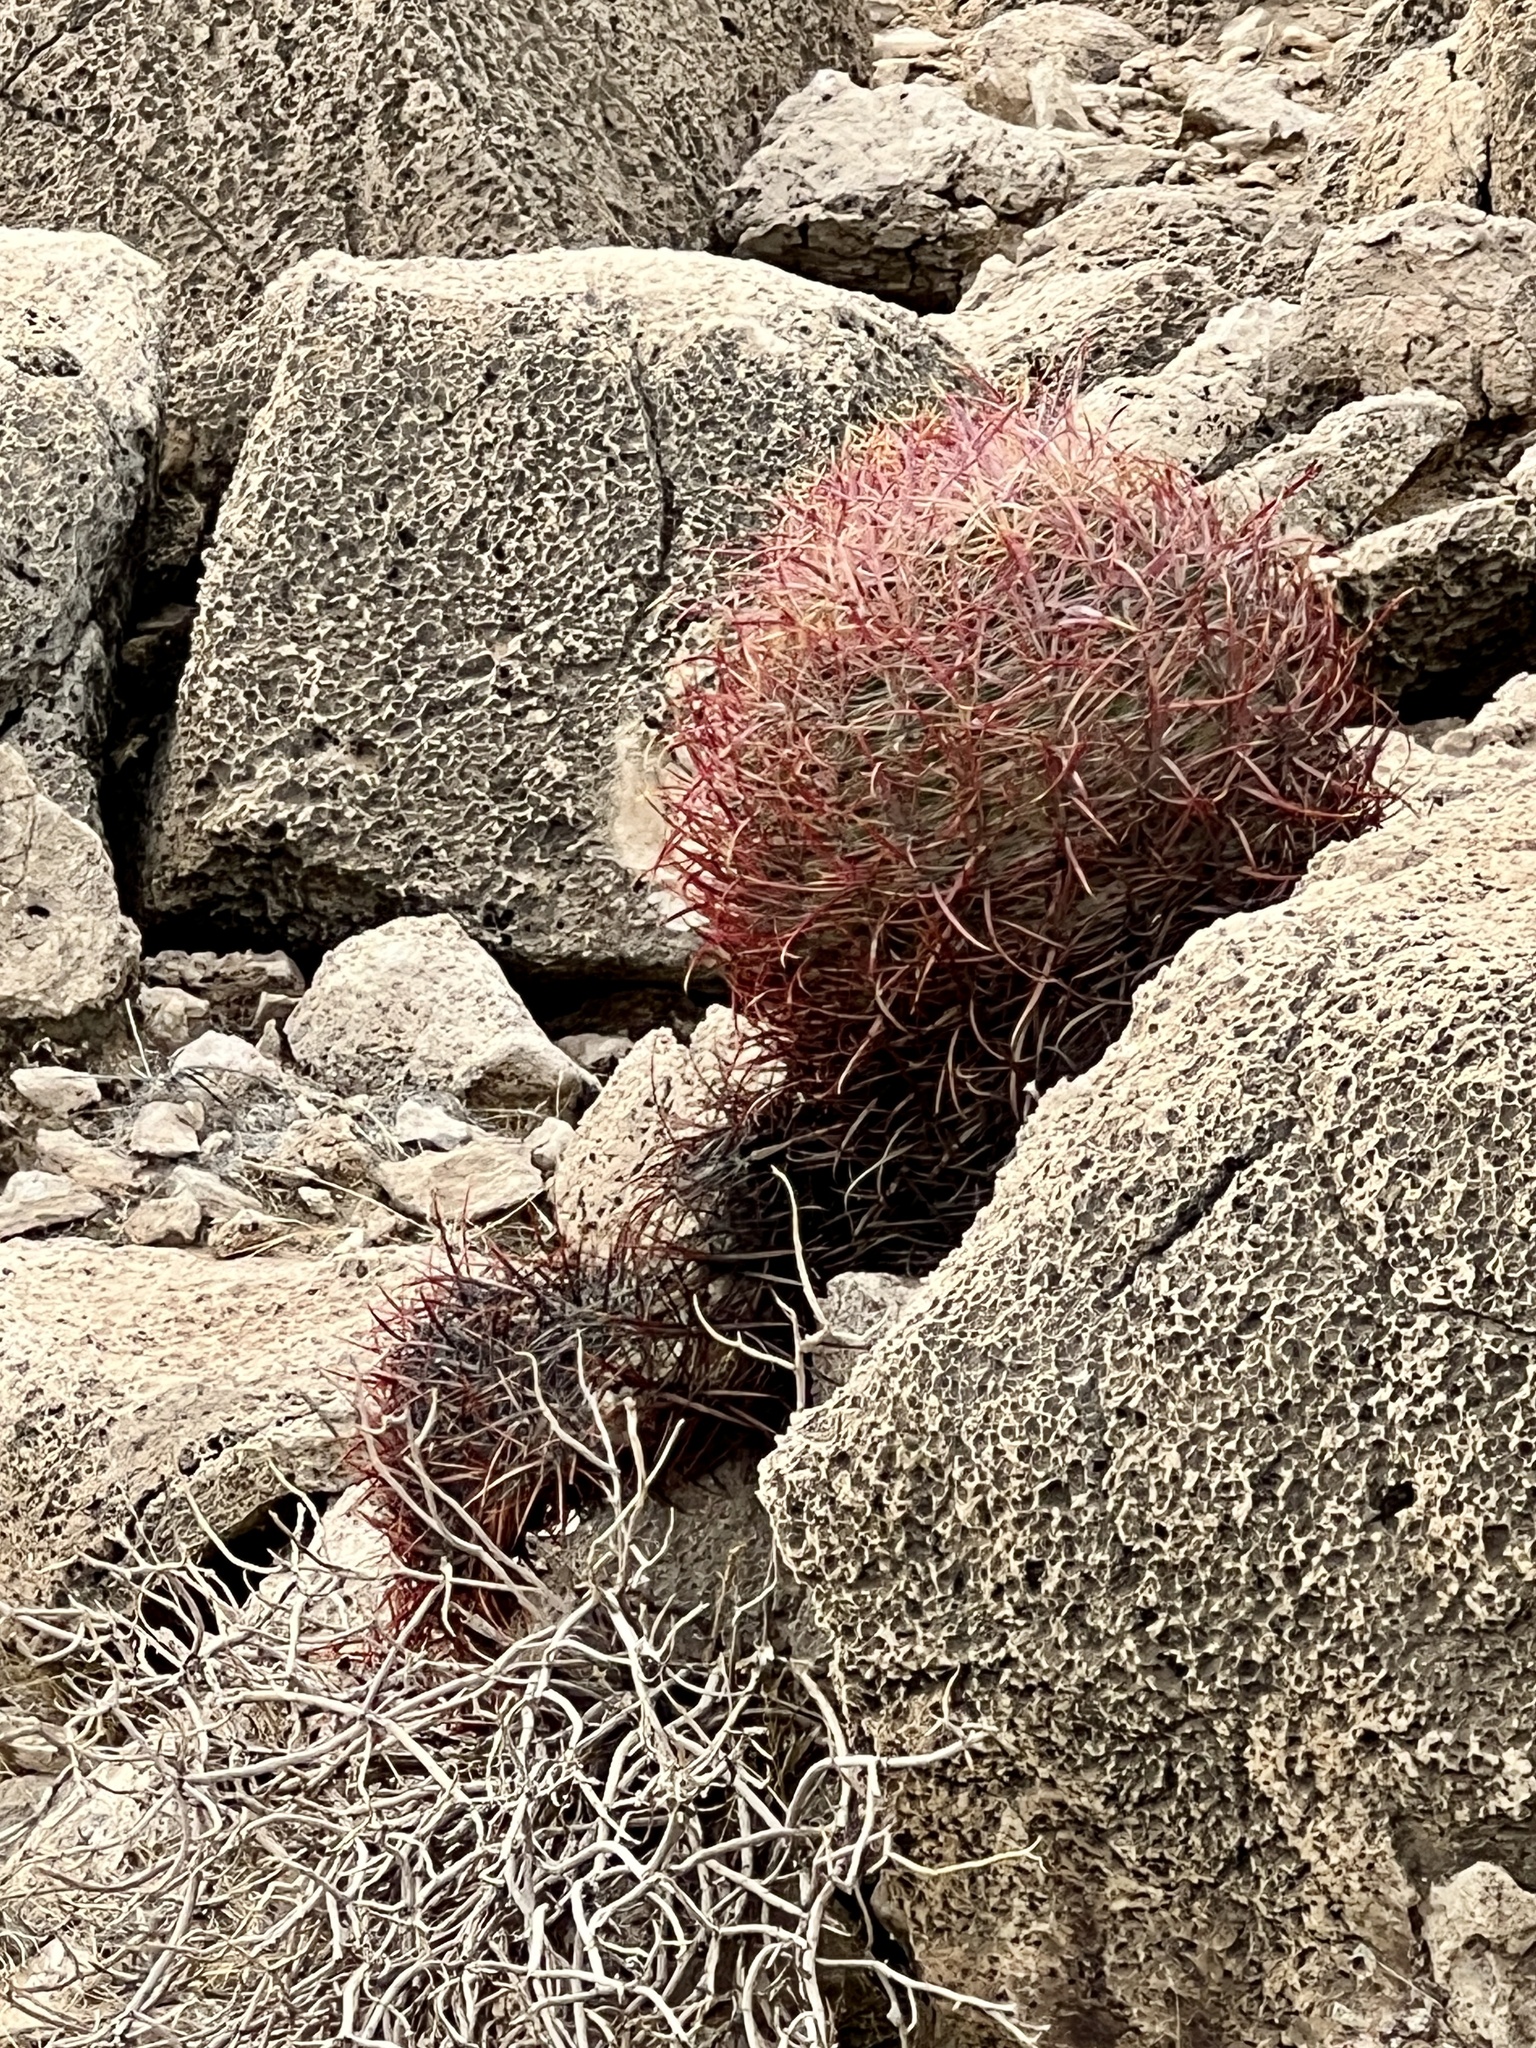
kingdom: Plantae
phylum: Tracheophyta
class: Magnoliopsida
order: Caryophyllales
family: Cactaceae
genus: Ferocactus
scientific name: Ferocactus cylindraceus
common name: California barrel cactus
